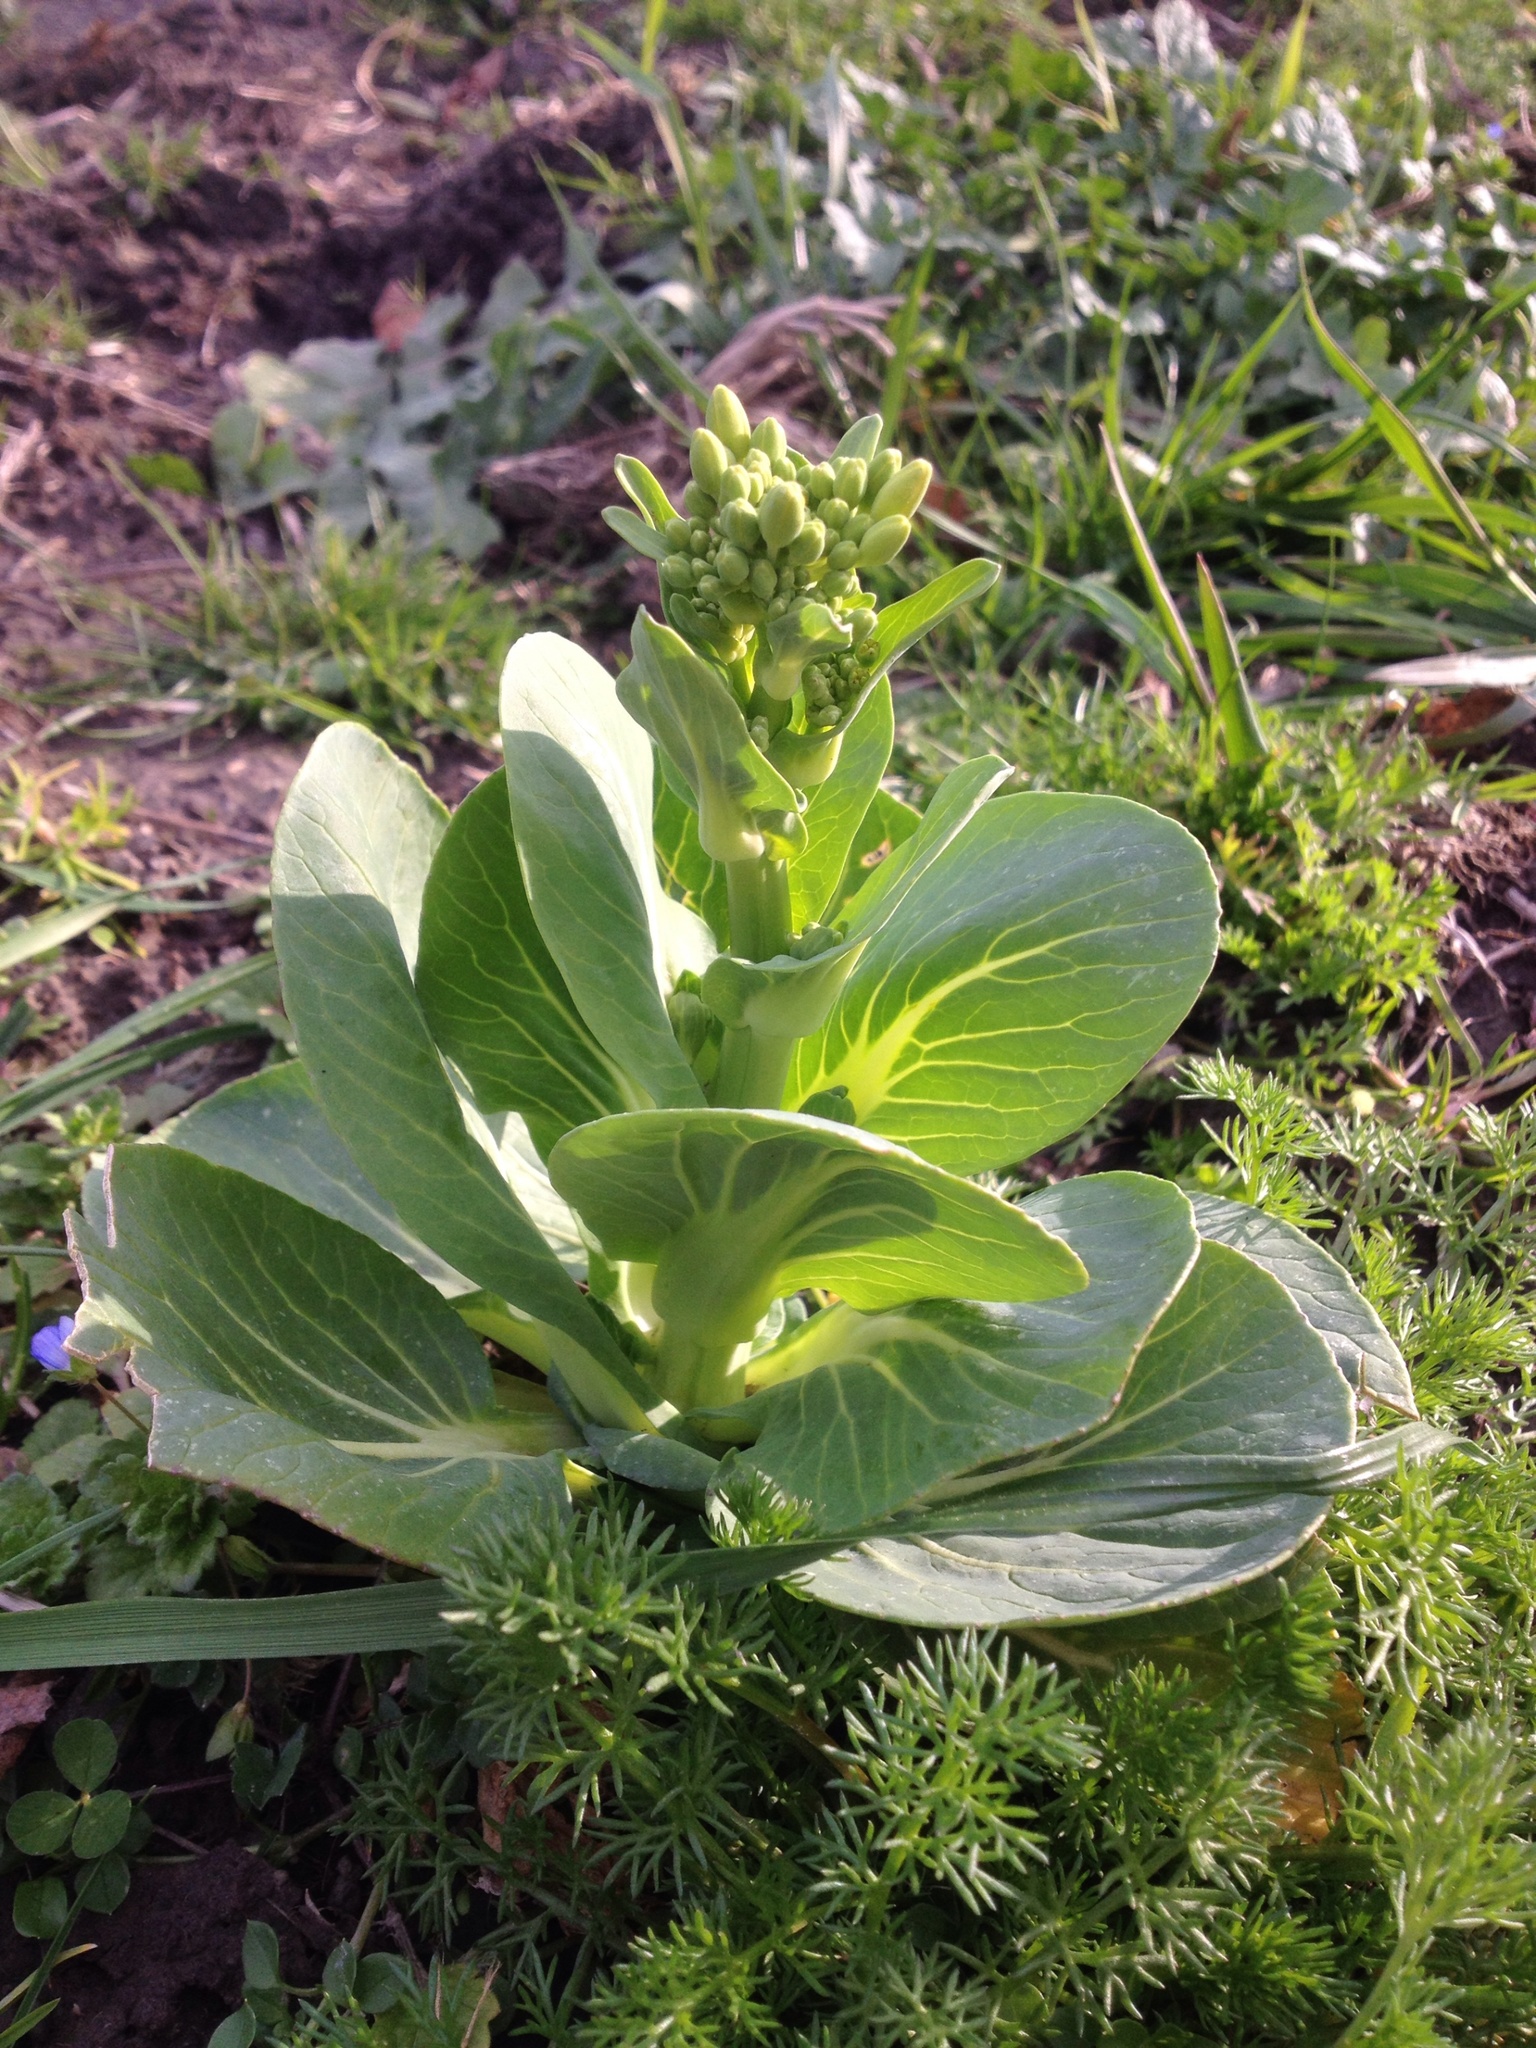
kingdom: Plantae
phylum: Tracheophyta
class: Magnoliopsida
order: Brassicales
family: Brassicaceae
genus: Brassica
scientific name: Brassica rapa
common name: Field mustard
